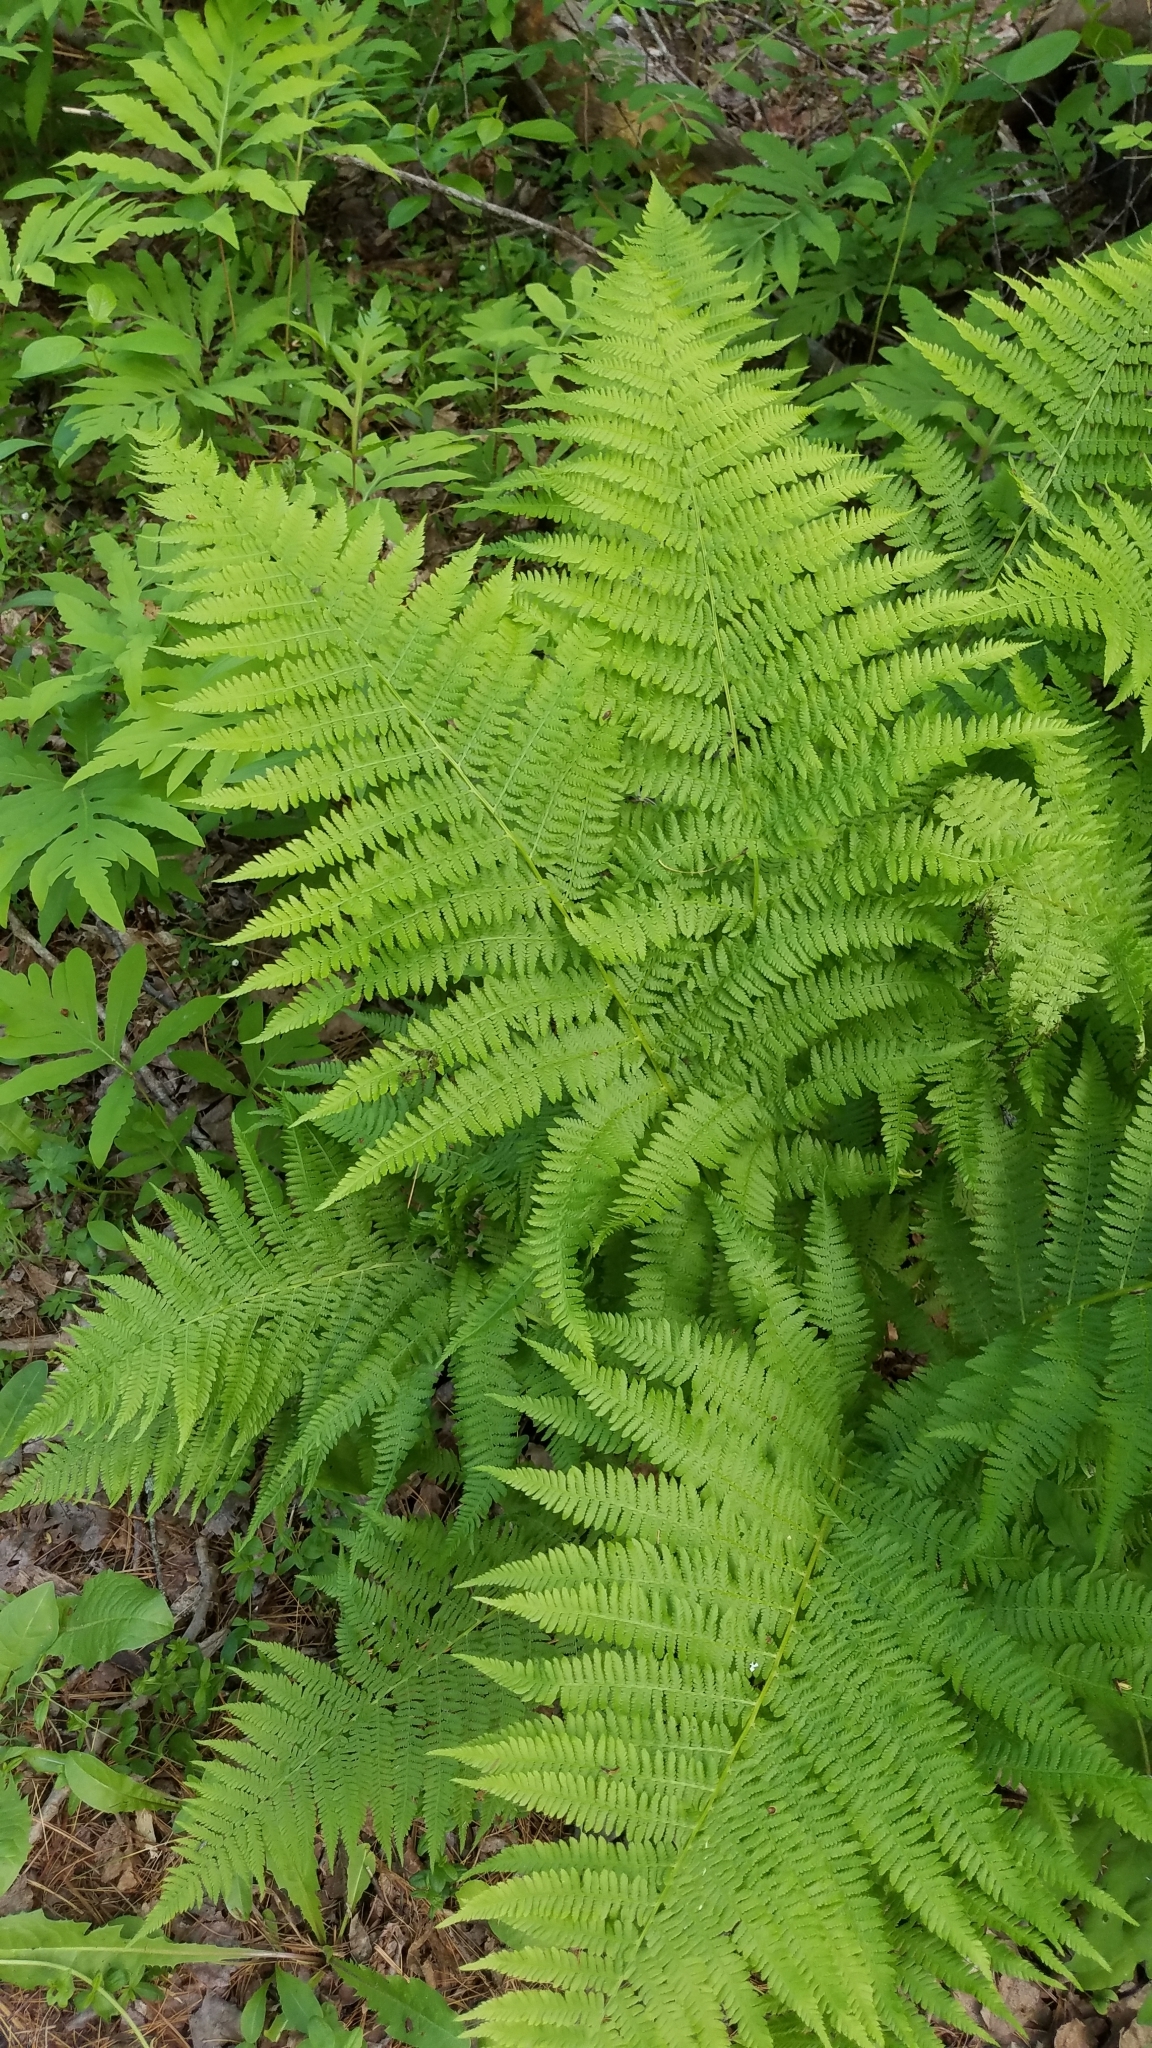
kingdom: Plantae
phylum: Tracheophyta
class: Polypodiopsida
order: Polypodiales
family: Athyriaceae
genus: Athyrium
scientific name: Athyrium angustum
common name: Northern lady fern
